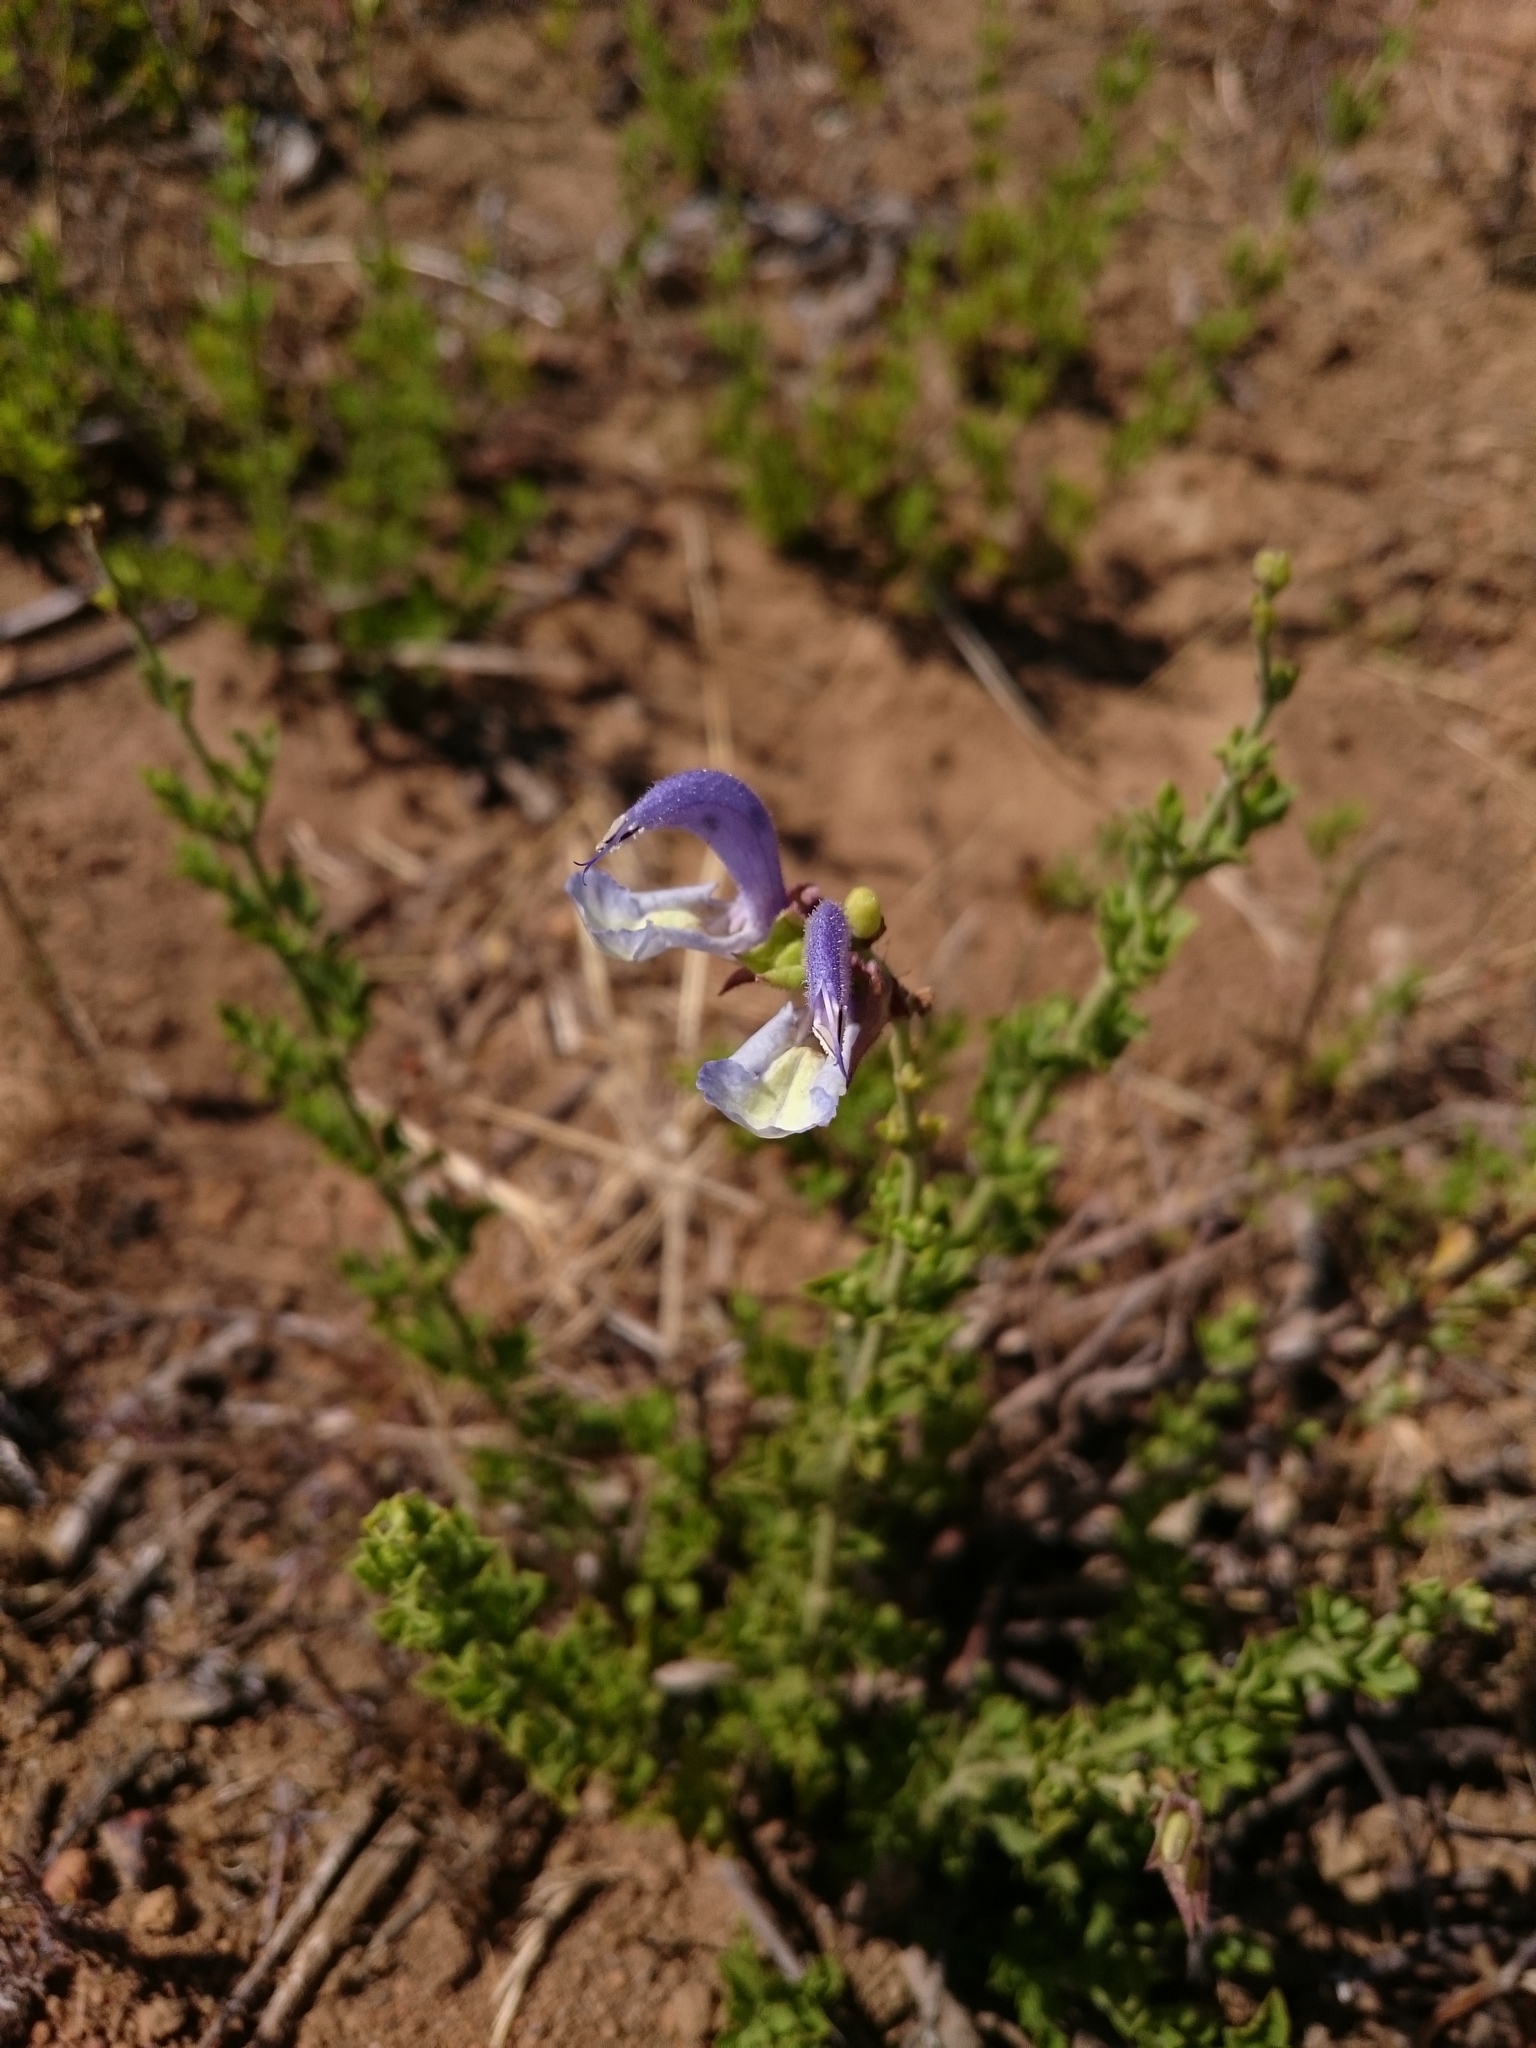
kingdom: Plantae
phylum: Tracheophyta
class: Magnoliopsida
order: Lamiales
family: Lamiaceae
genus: Salvia
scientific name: Salvia chamelaeagnea
